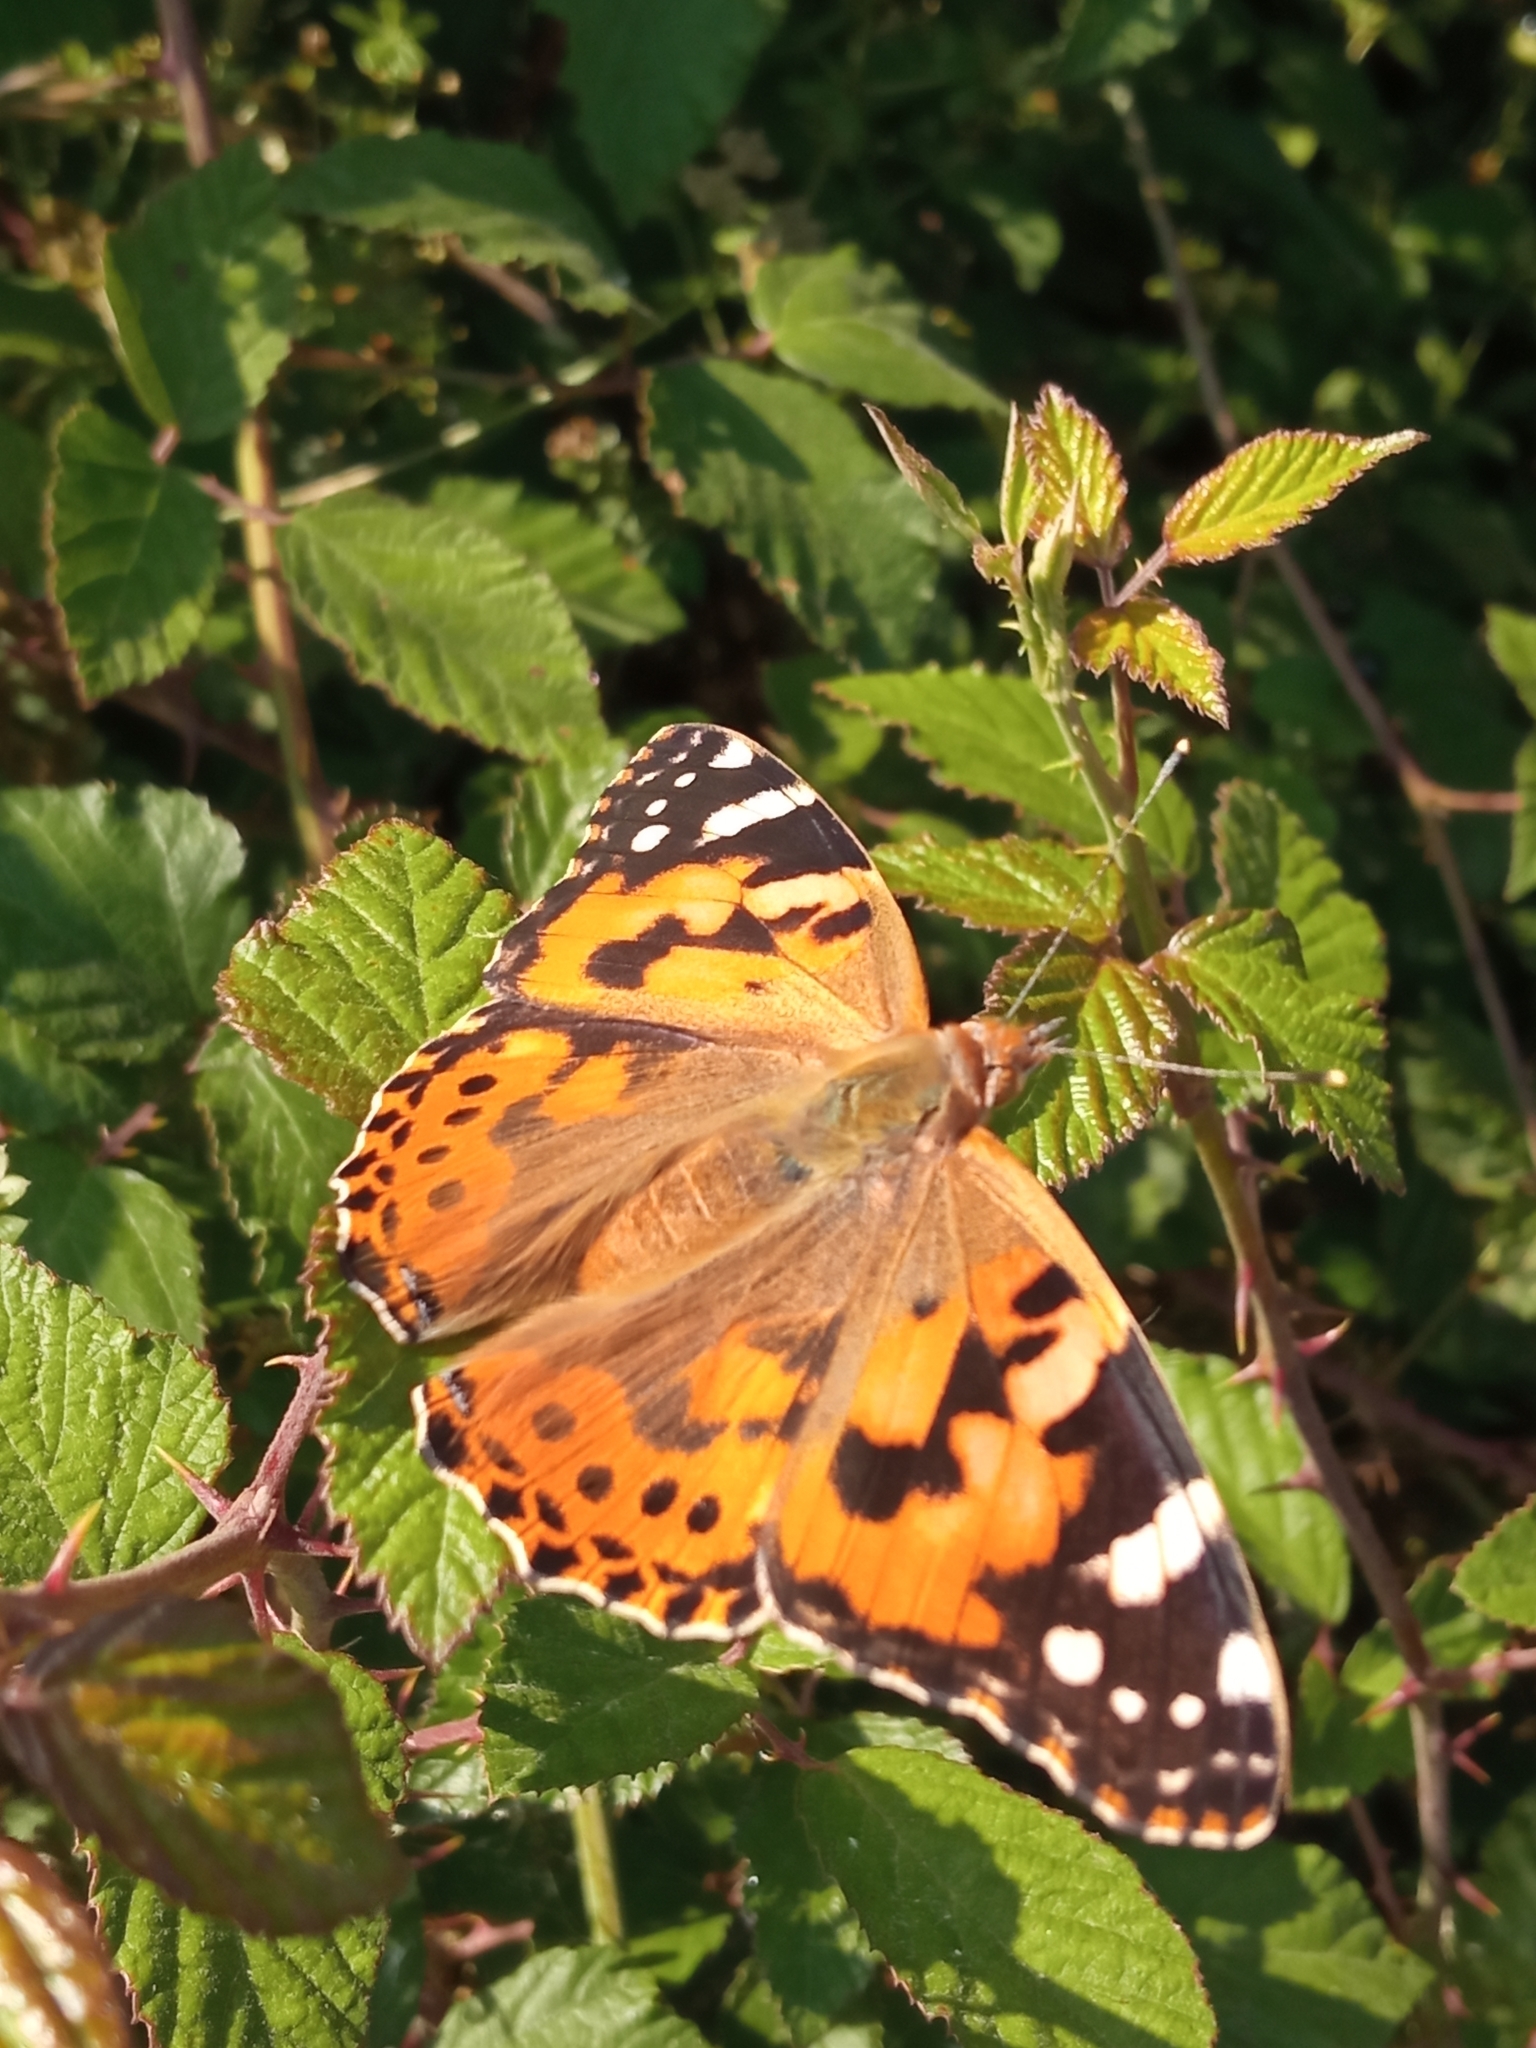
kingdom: Animalia
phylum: Arthropoda
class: Insecta
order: Lepidoptera
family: Nymphalidae
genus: Vanessa
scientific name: Vanessa cardui
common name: Painted lady
